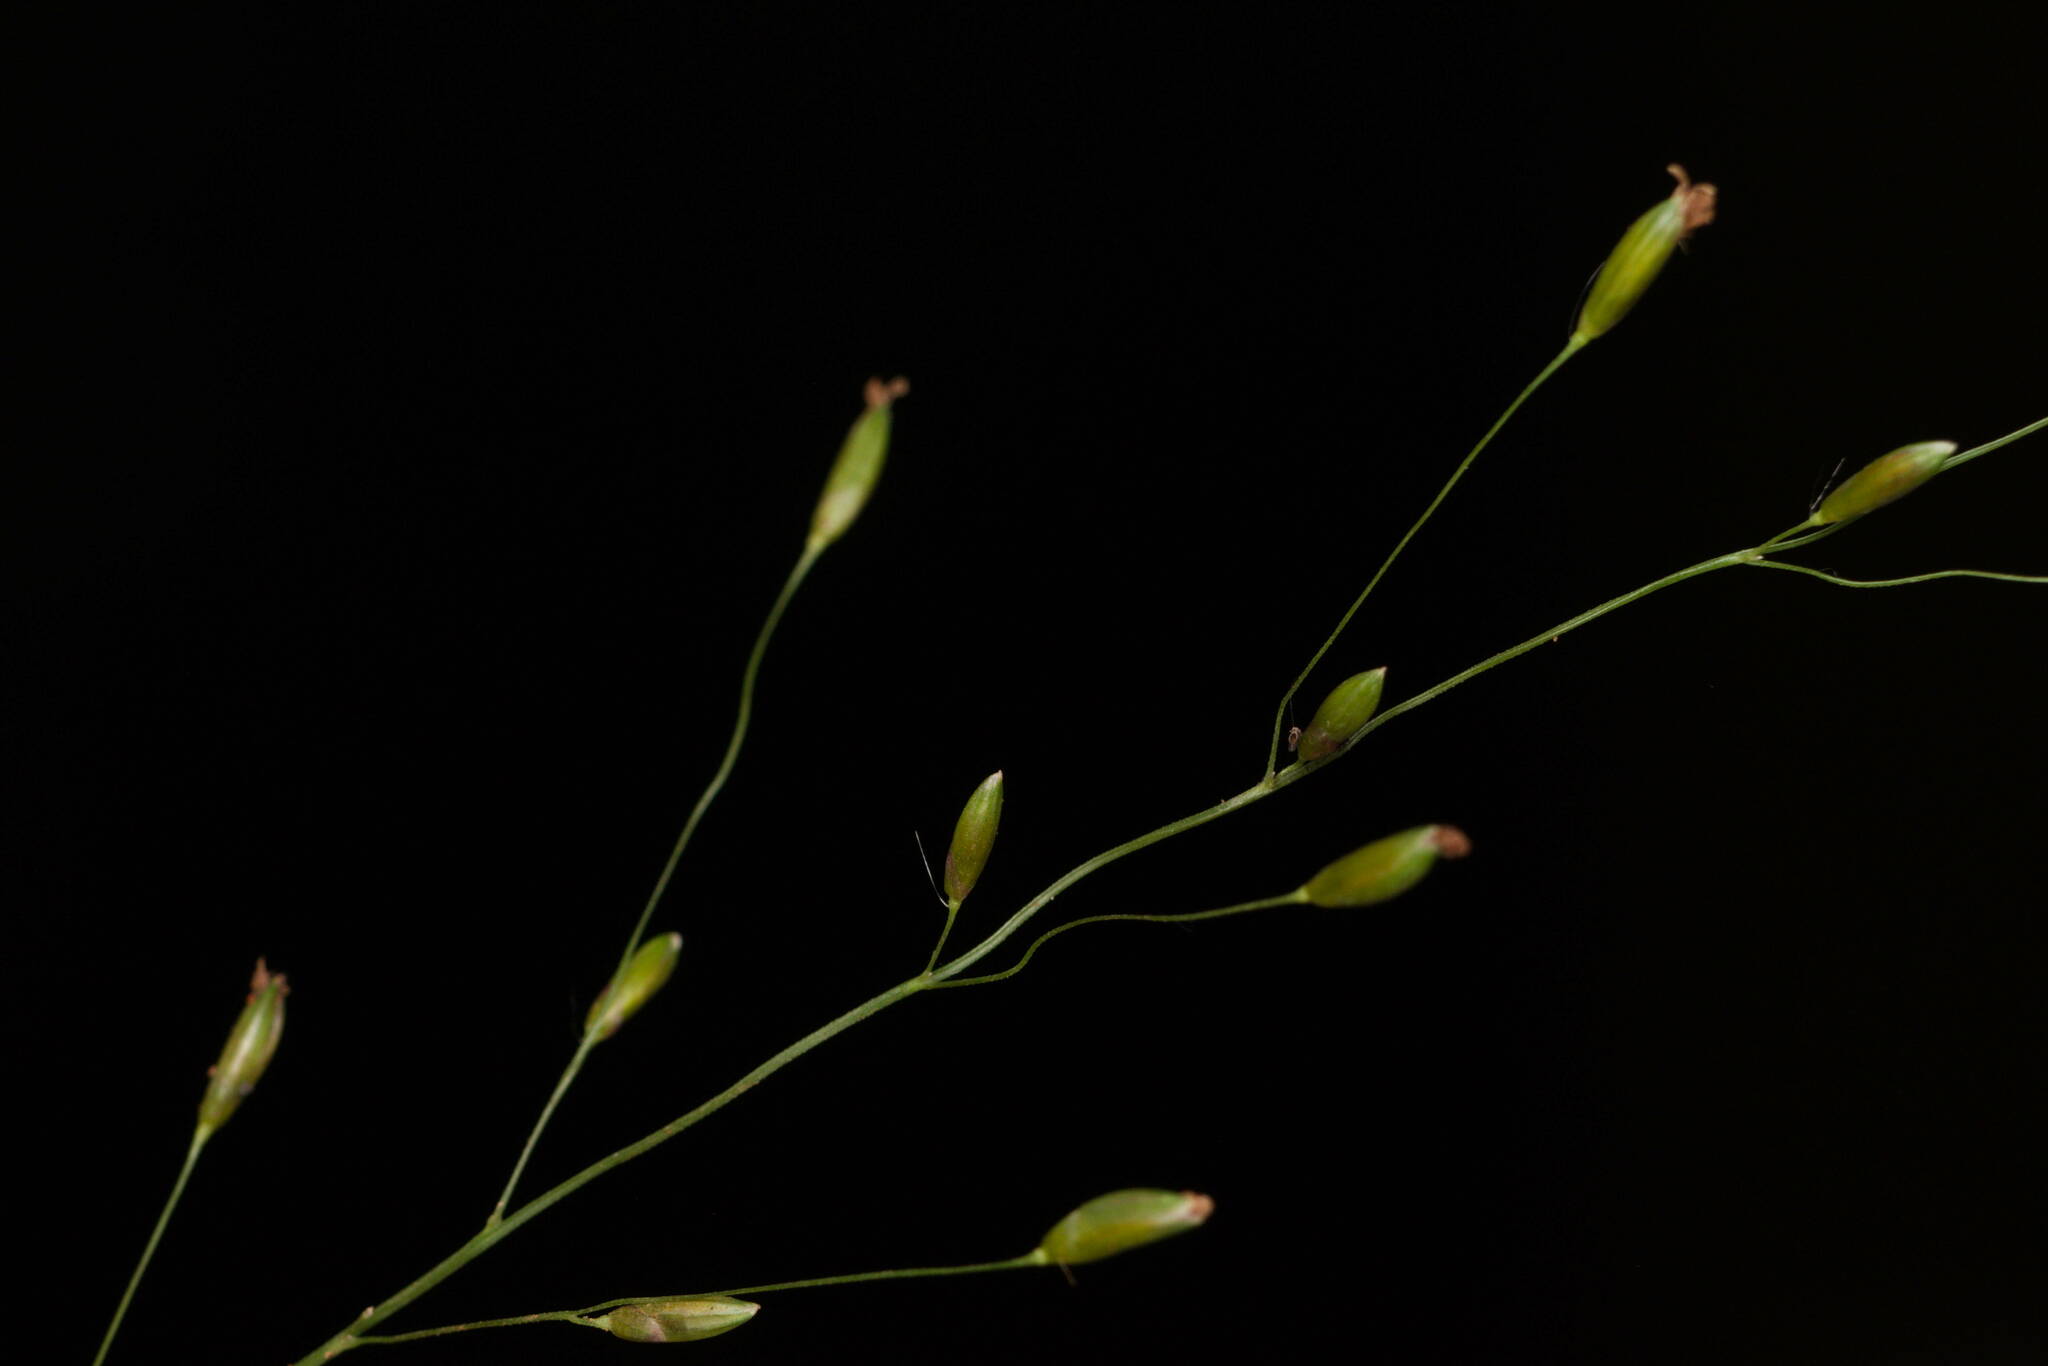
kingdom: Plantae
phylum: Tracheophyta
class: Liliopsida
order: Poales
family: Poaceae
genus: Megathyrsus
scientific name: Megathyrsus maximus
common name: Guineagrass
